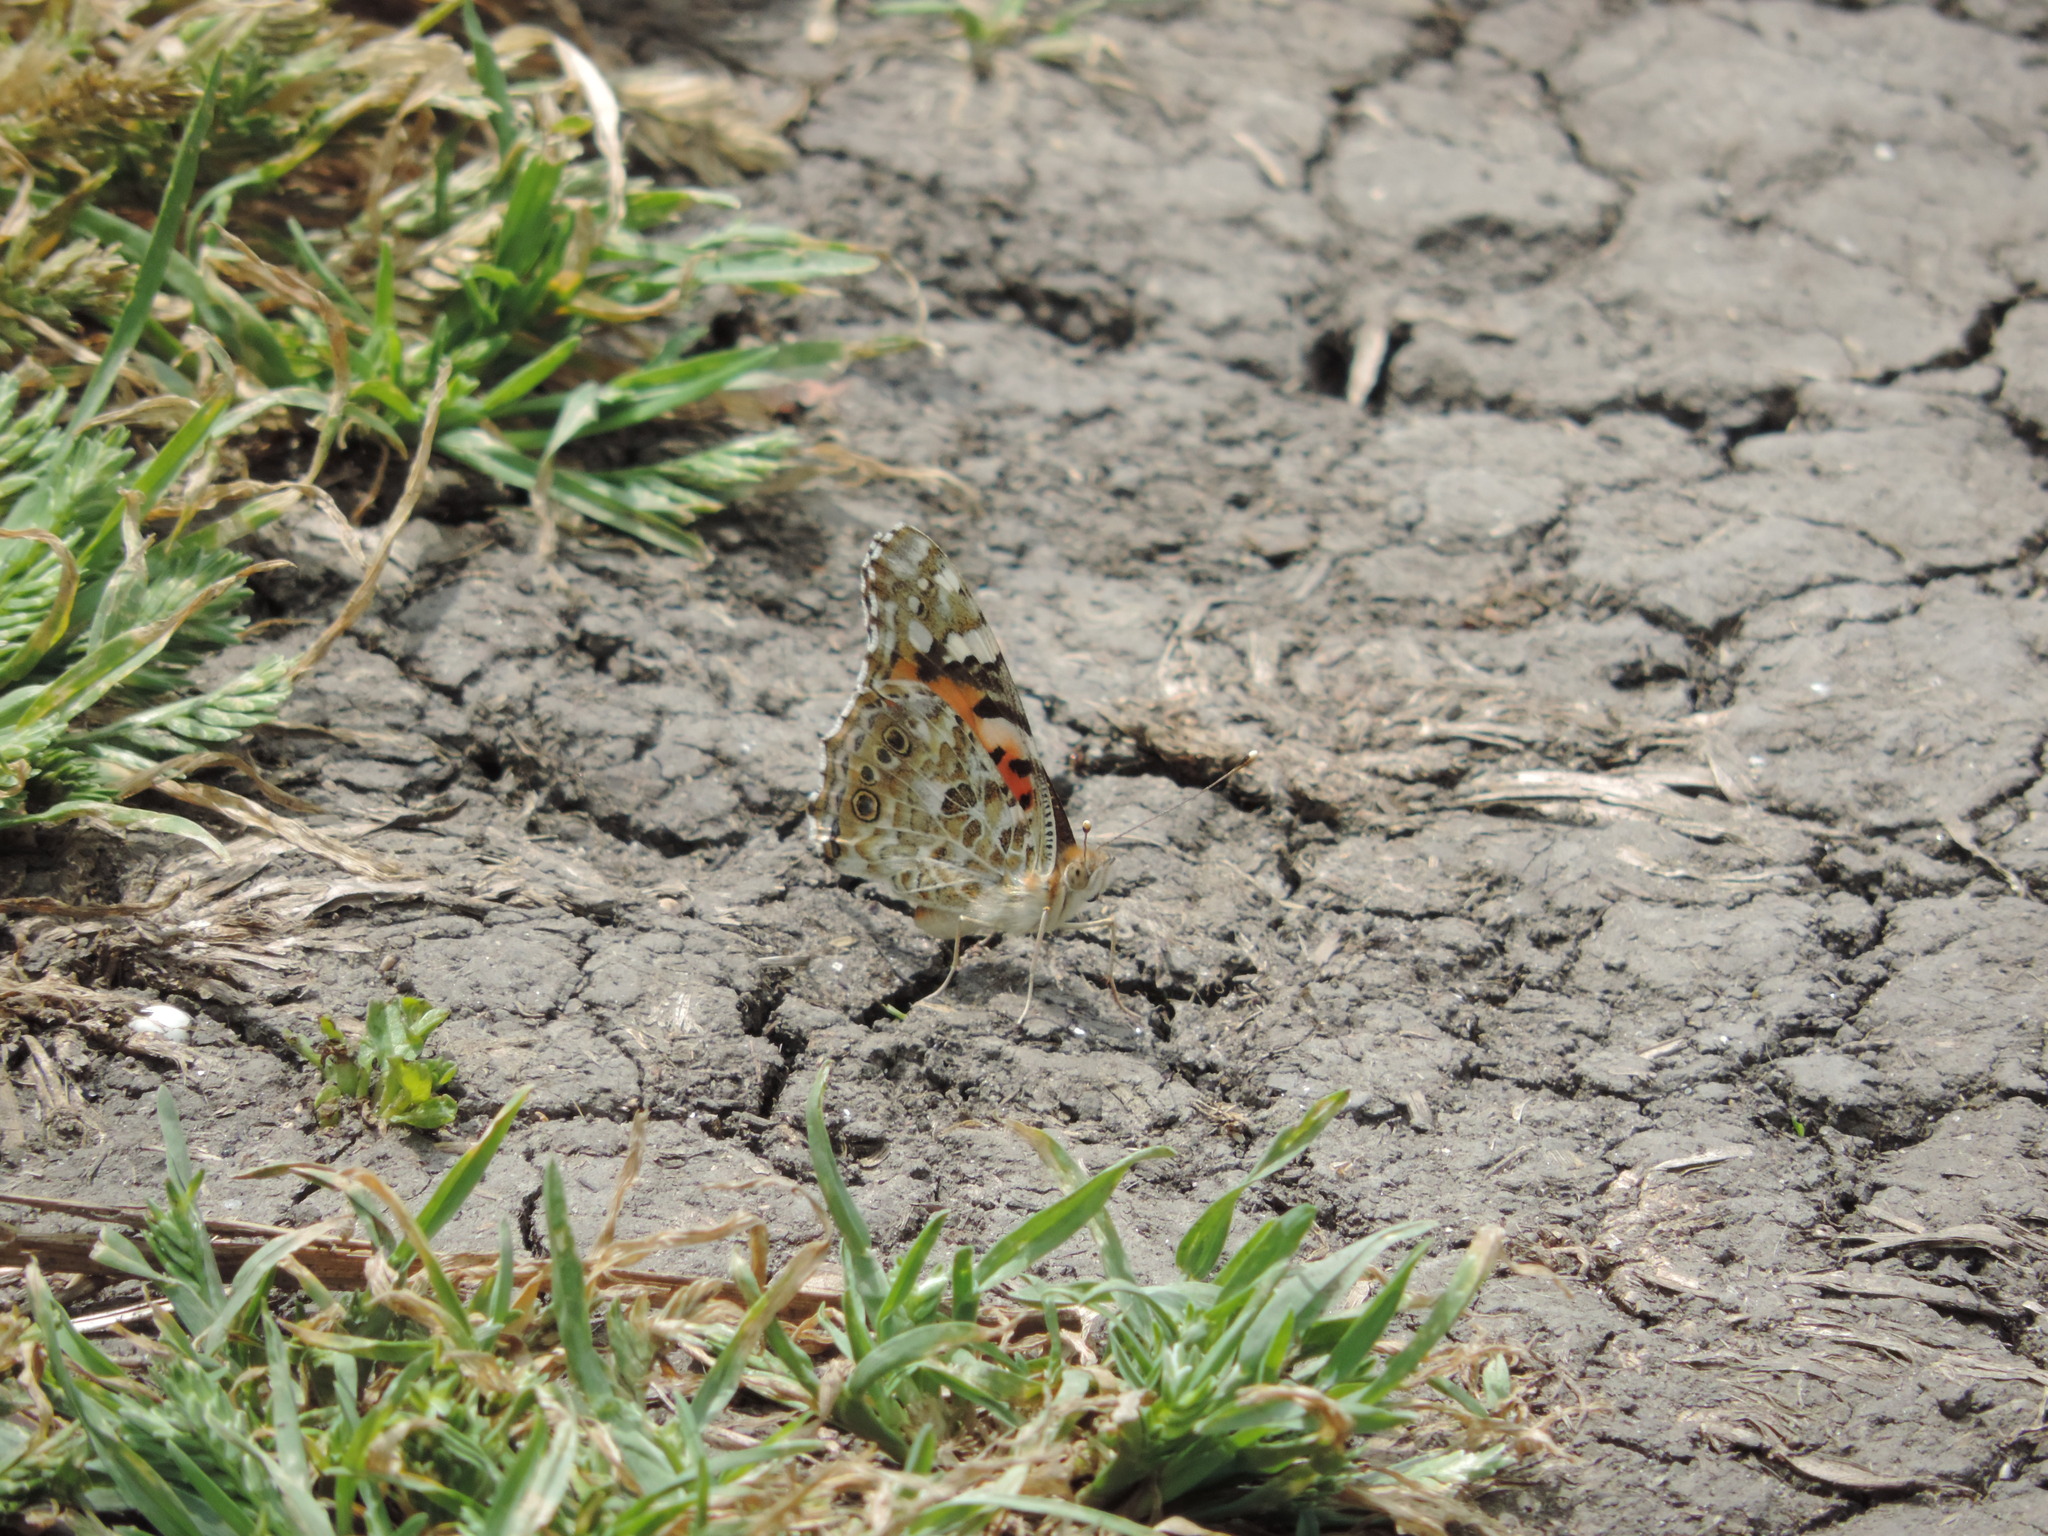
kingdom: Animalia
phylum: Arthropoda
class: Insecta
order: Lepidoptera
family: Nymphalidae
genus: Vanessa
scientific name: Vanessa cardui
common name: Painted lady
